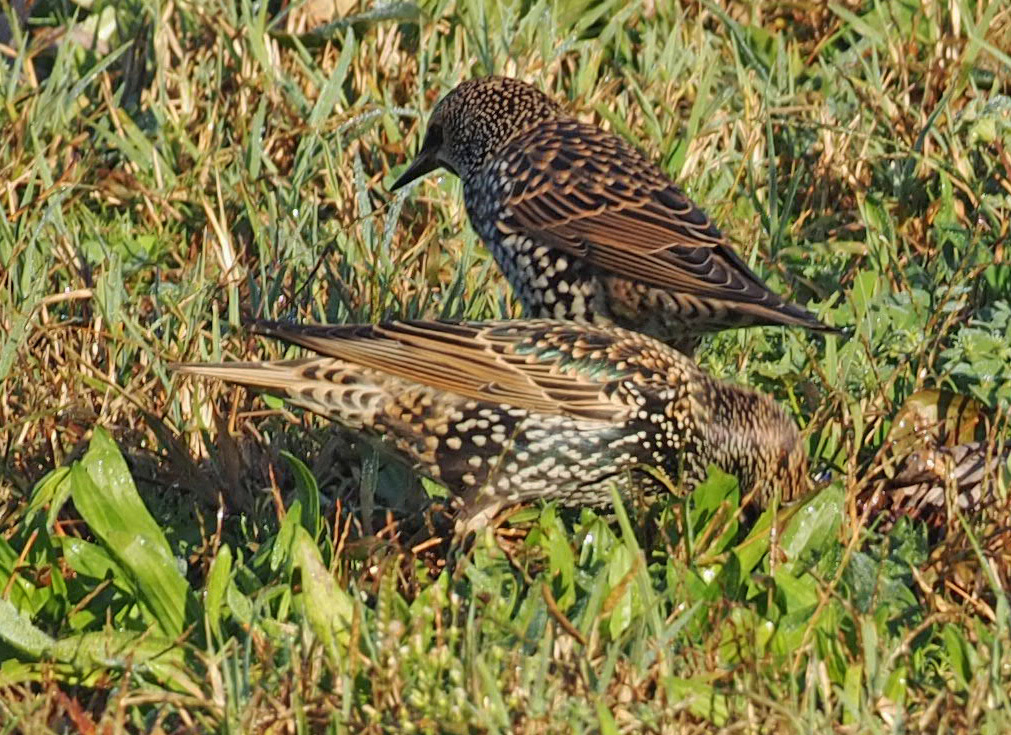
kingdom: Animalia
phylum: Chordata
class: Aves
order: Passeriformes
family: Sturnidae
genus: Sturnus
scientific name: Sturnus vulgaris
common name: Common starling
